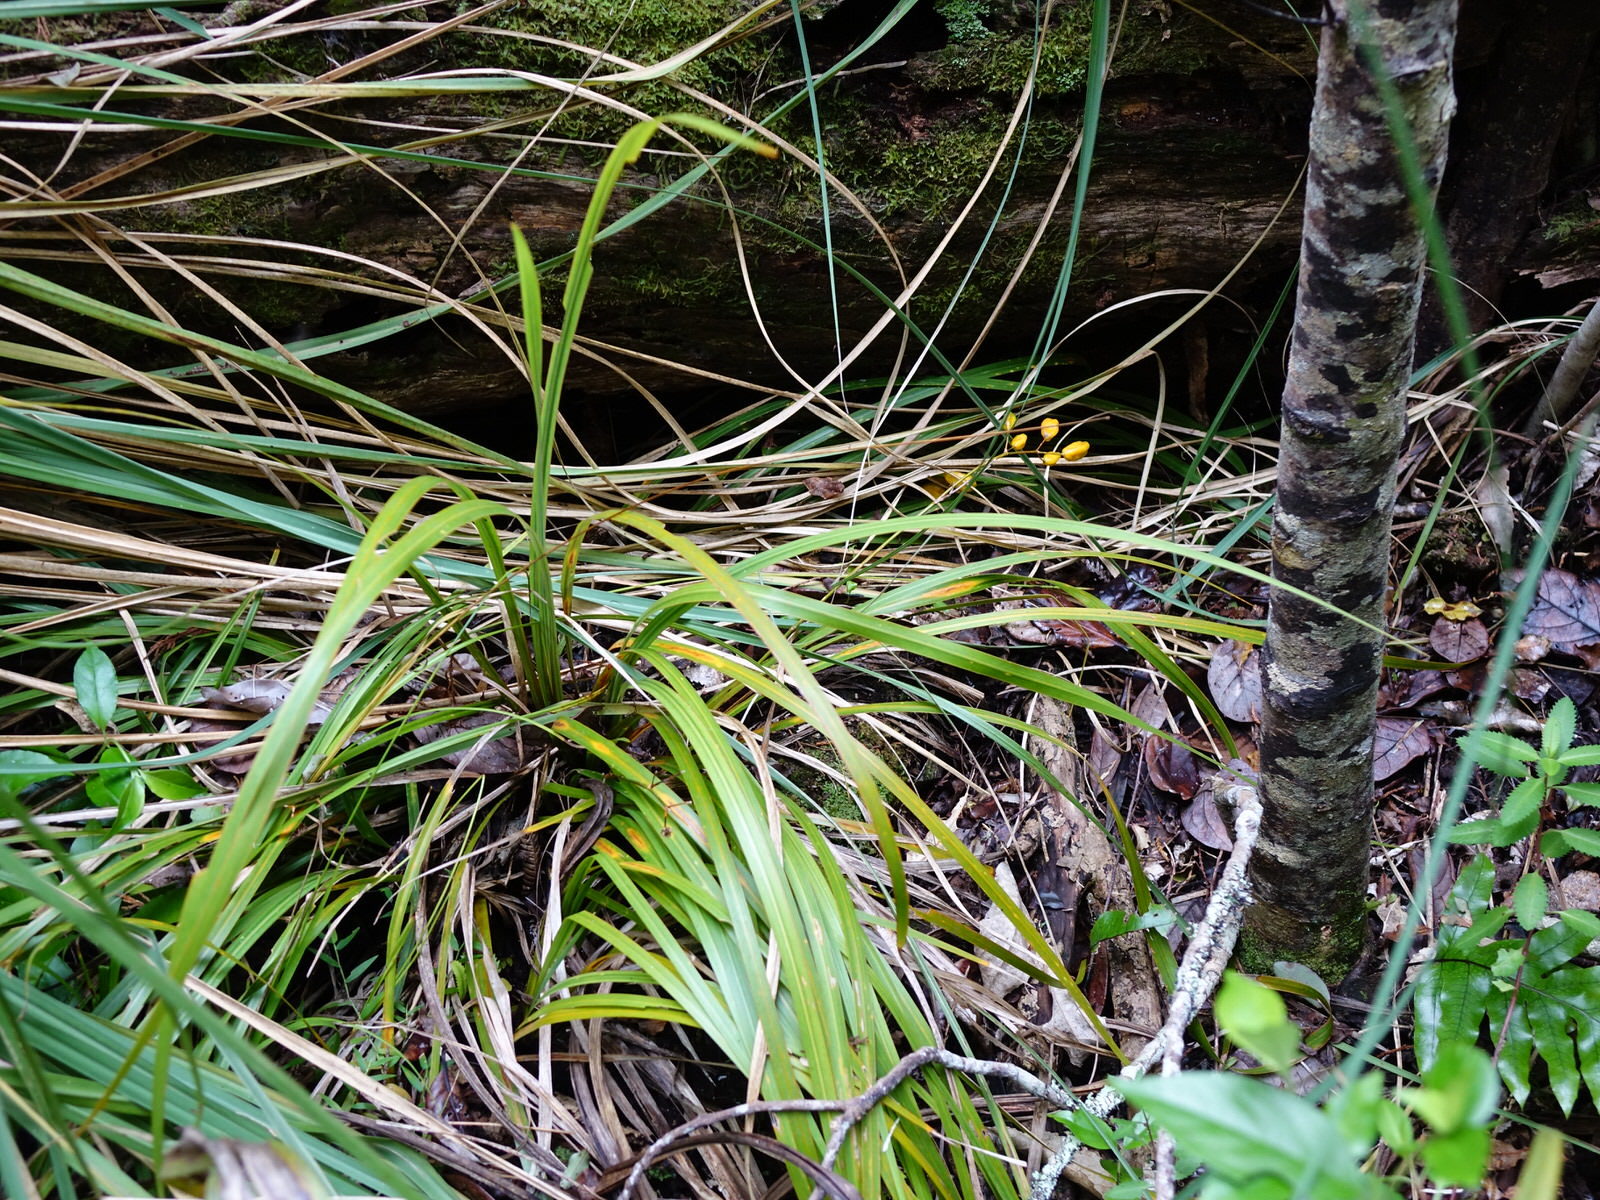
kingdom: Plantae
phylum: Tracheophyta
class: Liliopsida
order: Asparagales
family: Iridaceae
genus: Libertia
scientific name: Libertia ixioides
